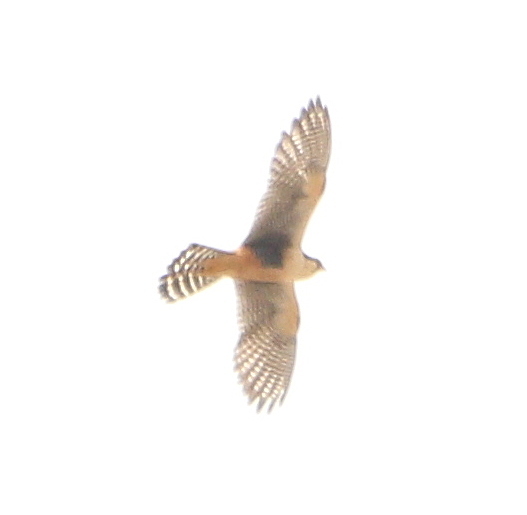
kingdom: Animalia
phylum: Chordata
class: Aves
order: Falconiformes
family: Falconidae
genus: Falco
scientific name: Falco femoralis
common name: Aplomado falcon
